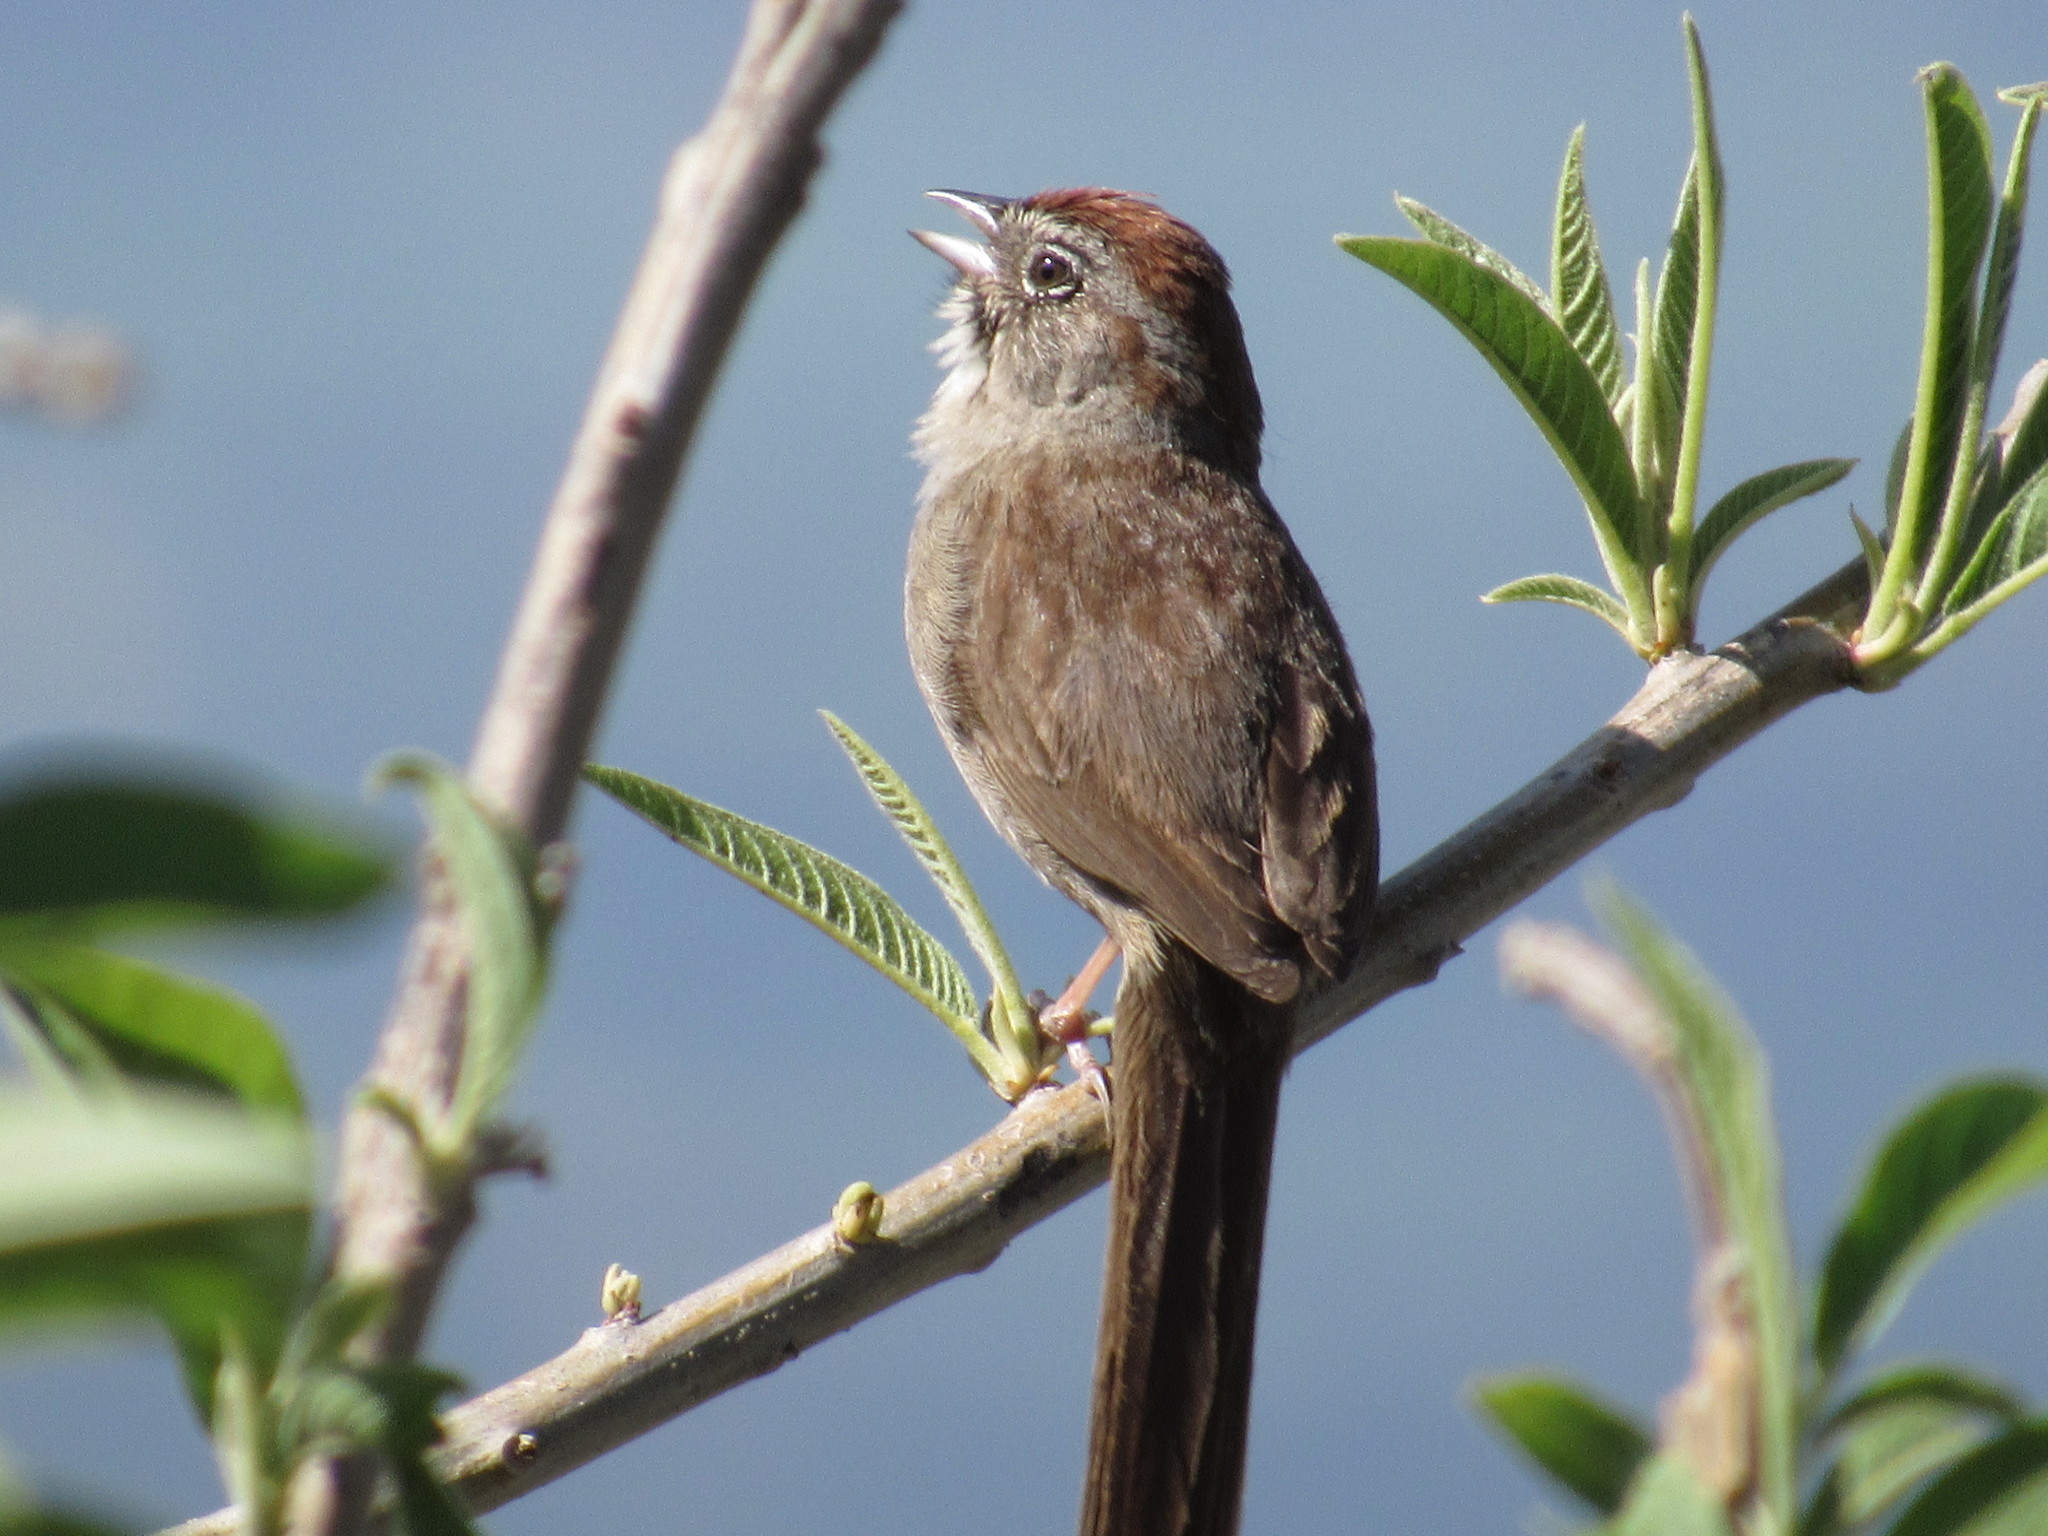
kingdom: Animalia
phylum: Chordata
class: Aves
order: Passeriformes
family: Passerellidae
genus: Aimophila
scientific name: Aimophila ruficeps
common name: Rufous-crowned sparrow
